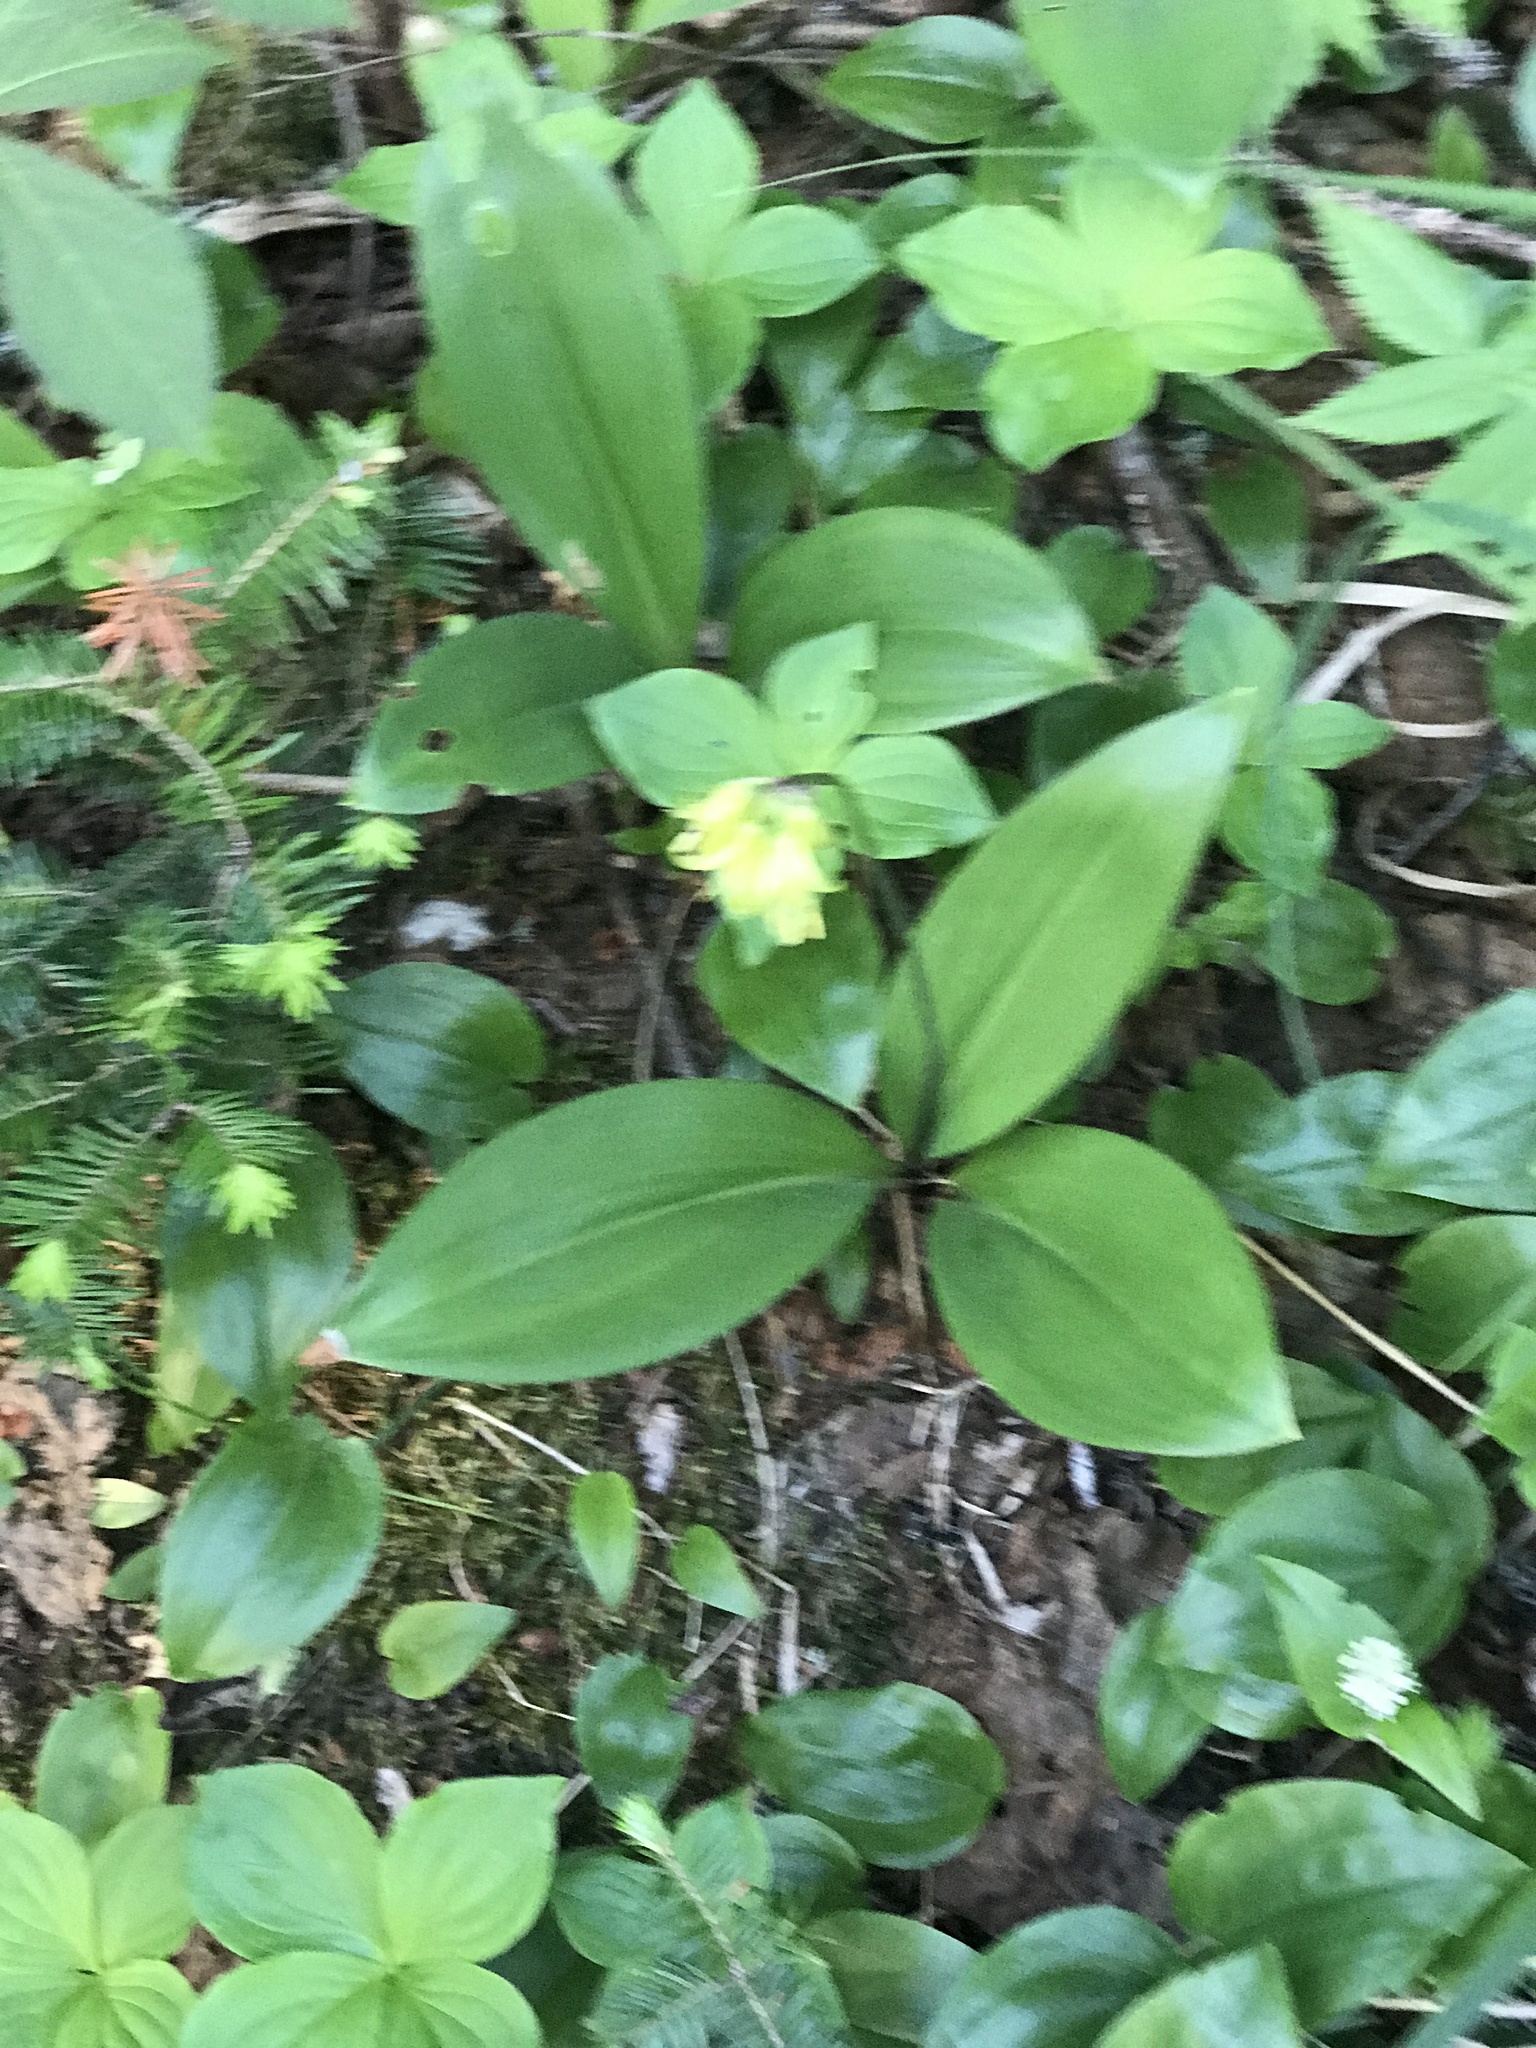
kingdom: Plantae
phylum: Tracheophyta
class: Liliopsida
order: Liliales
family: Liliaceae
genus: Clintonia
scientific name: Clintonia borealis
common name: Yellow clintonia
